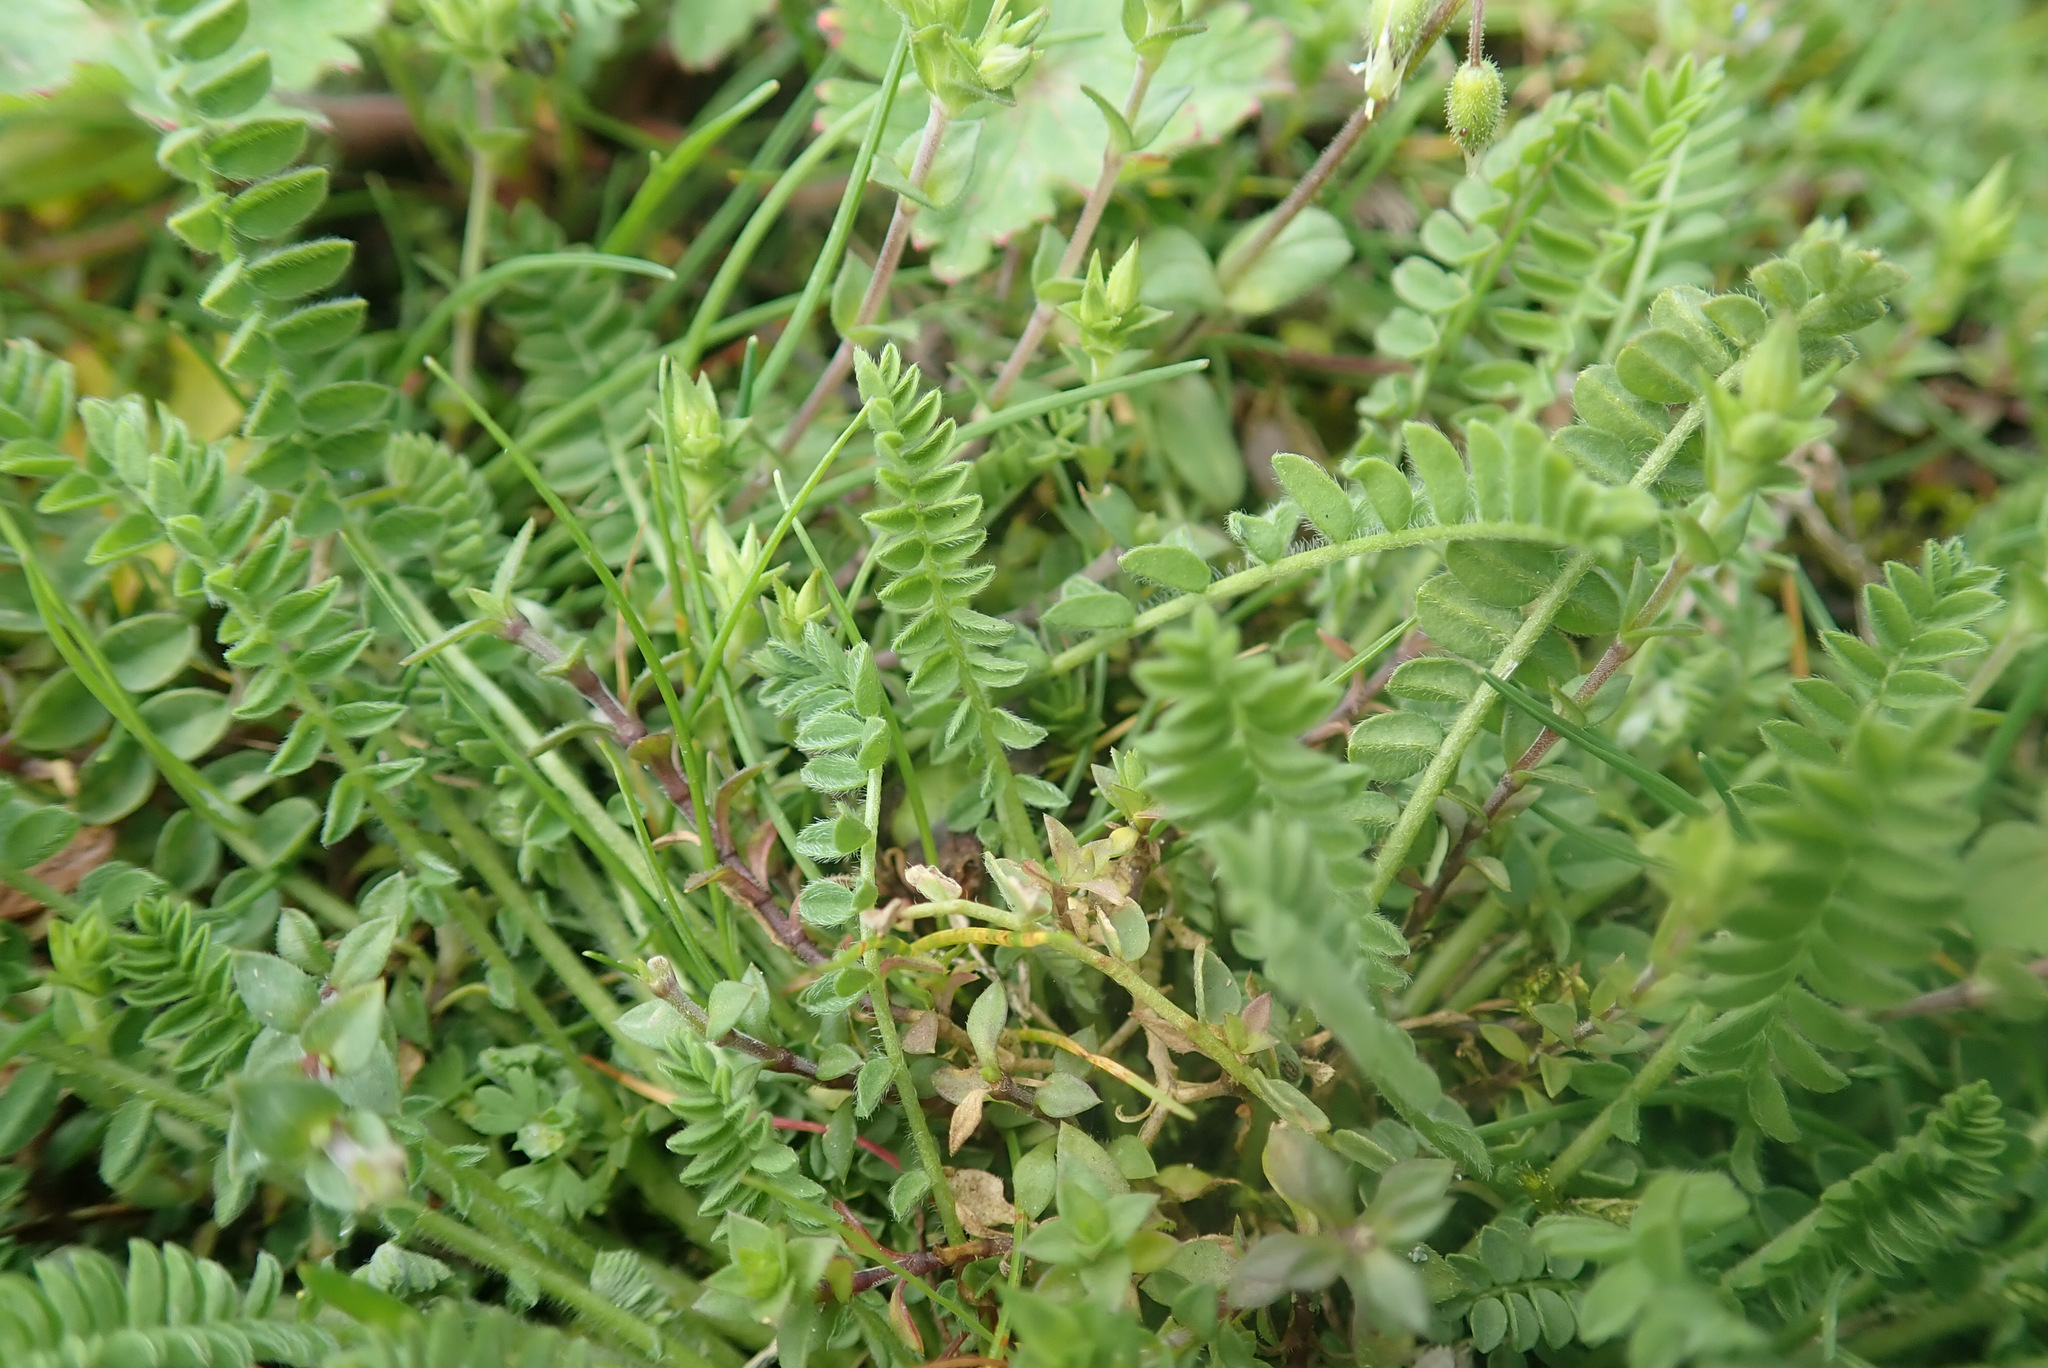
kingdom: Plantae
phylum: Tracheophyta
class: Magnoliopsida
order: Fabales
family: Fabaceae
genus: Ornithopus
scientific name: Ornithopus perpusillus
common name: Bird's-foot
